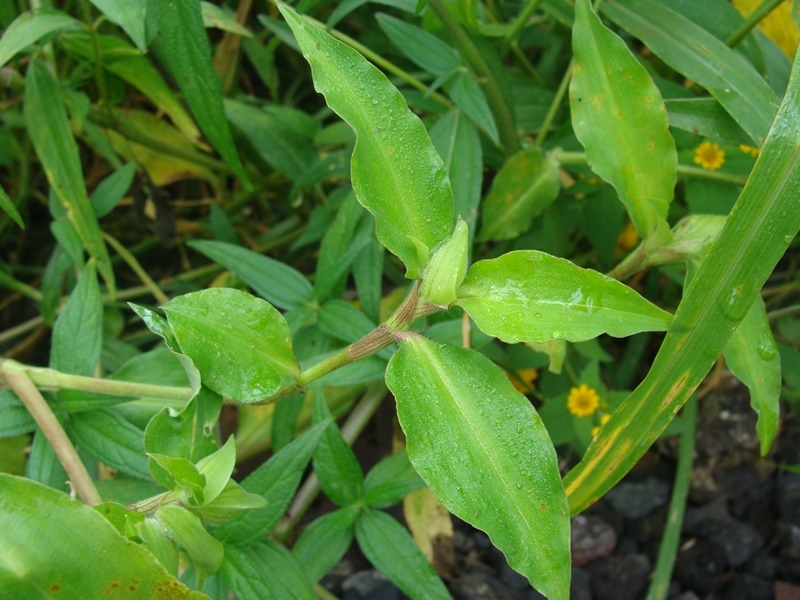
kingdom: Plantae
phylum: Tracheophyta
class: Liliopsida
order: Commelinales
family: Commelinaceae
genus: Commelina
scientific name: Commelina erecta
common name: Blousel blommetjie
